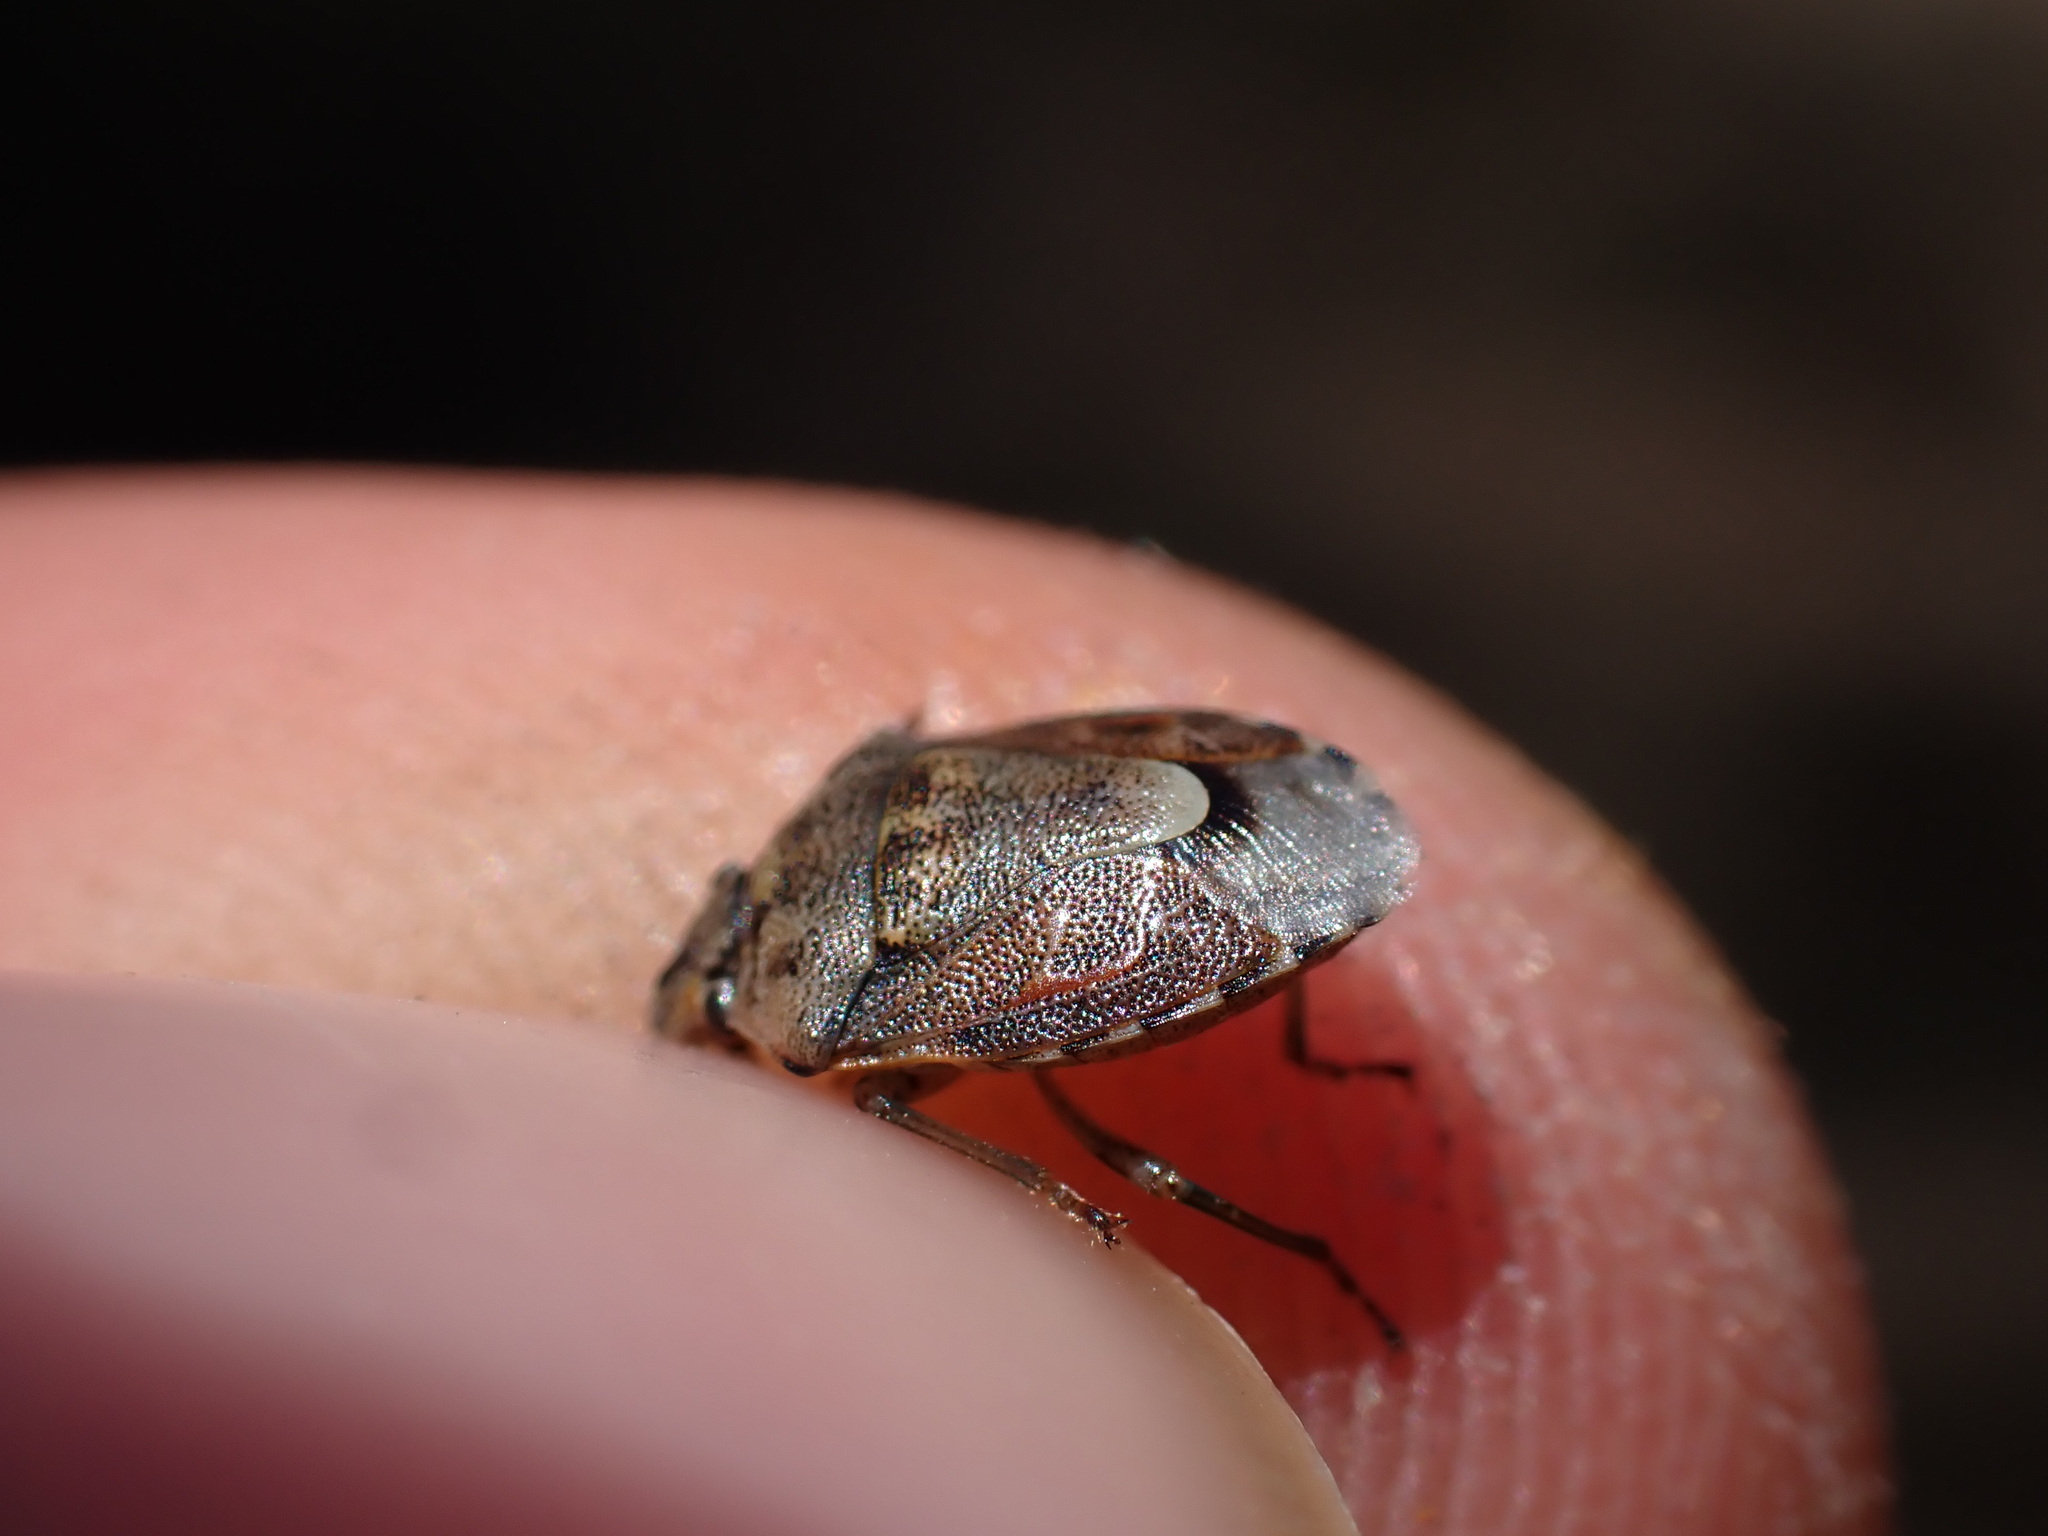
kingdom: Animalia
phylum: Arthropoda
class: Insecta
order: Hemiptera
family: Pentatomidae
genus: Holcogaster
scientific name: Holcogaster fibulata
